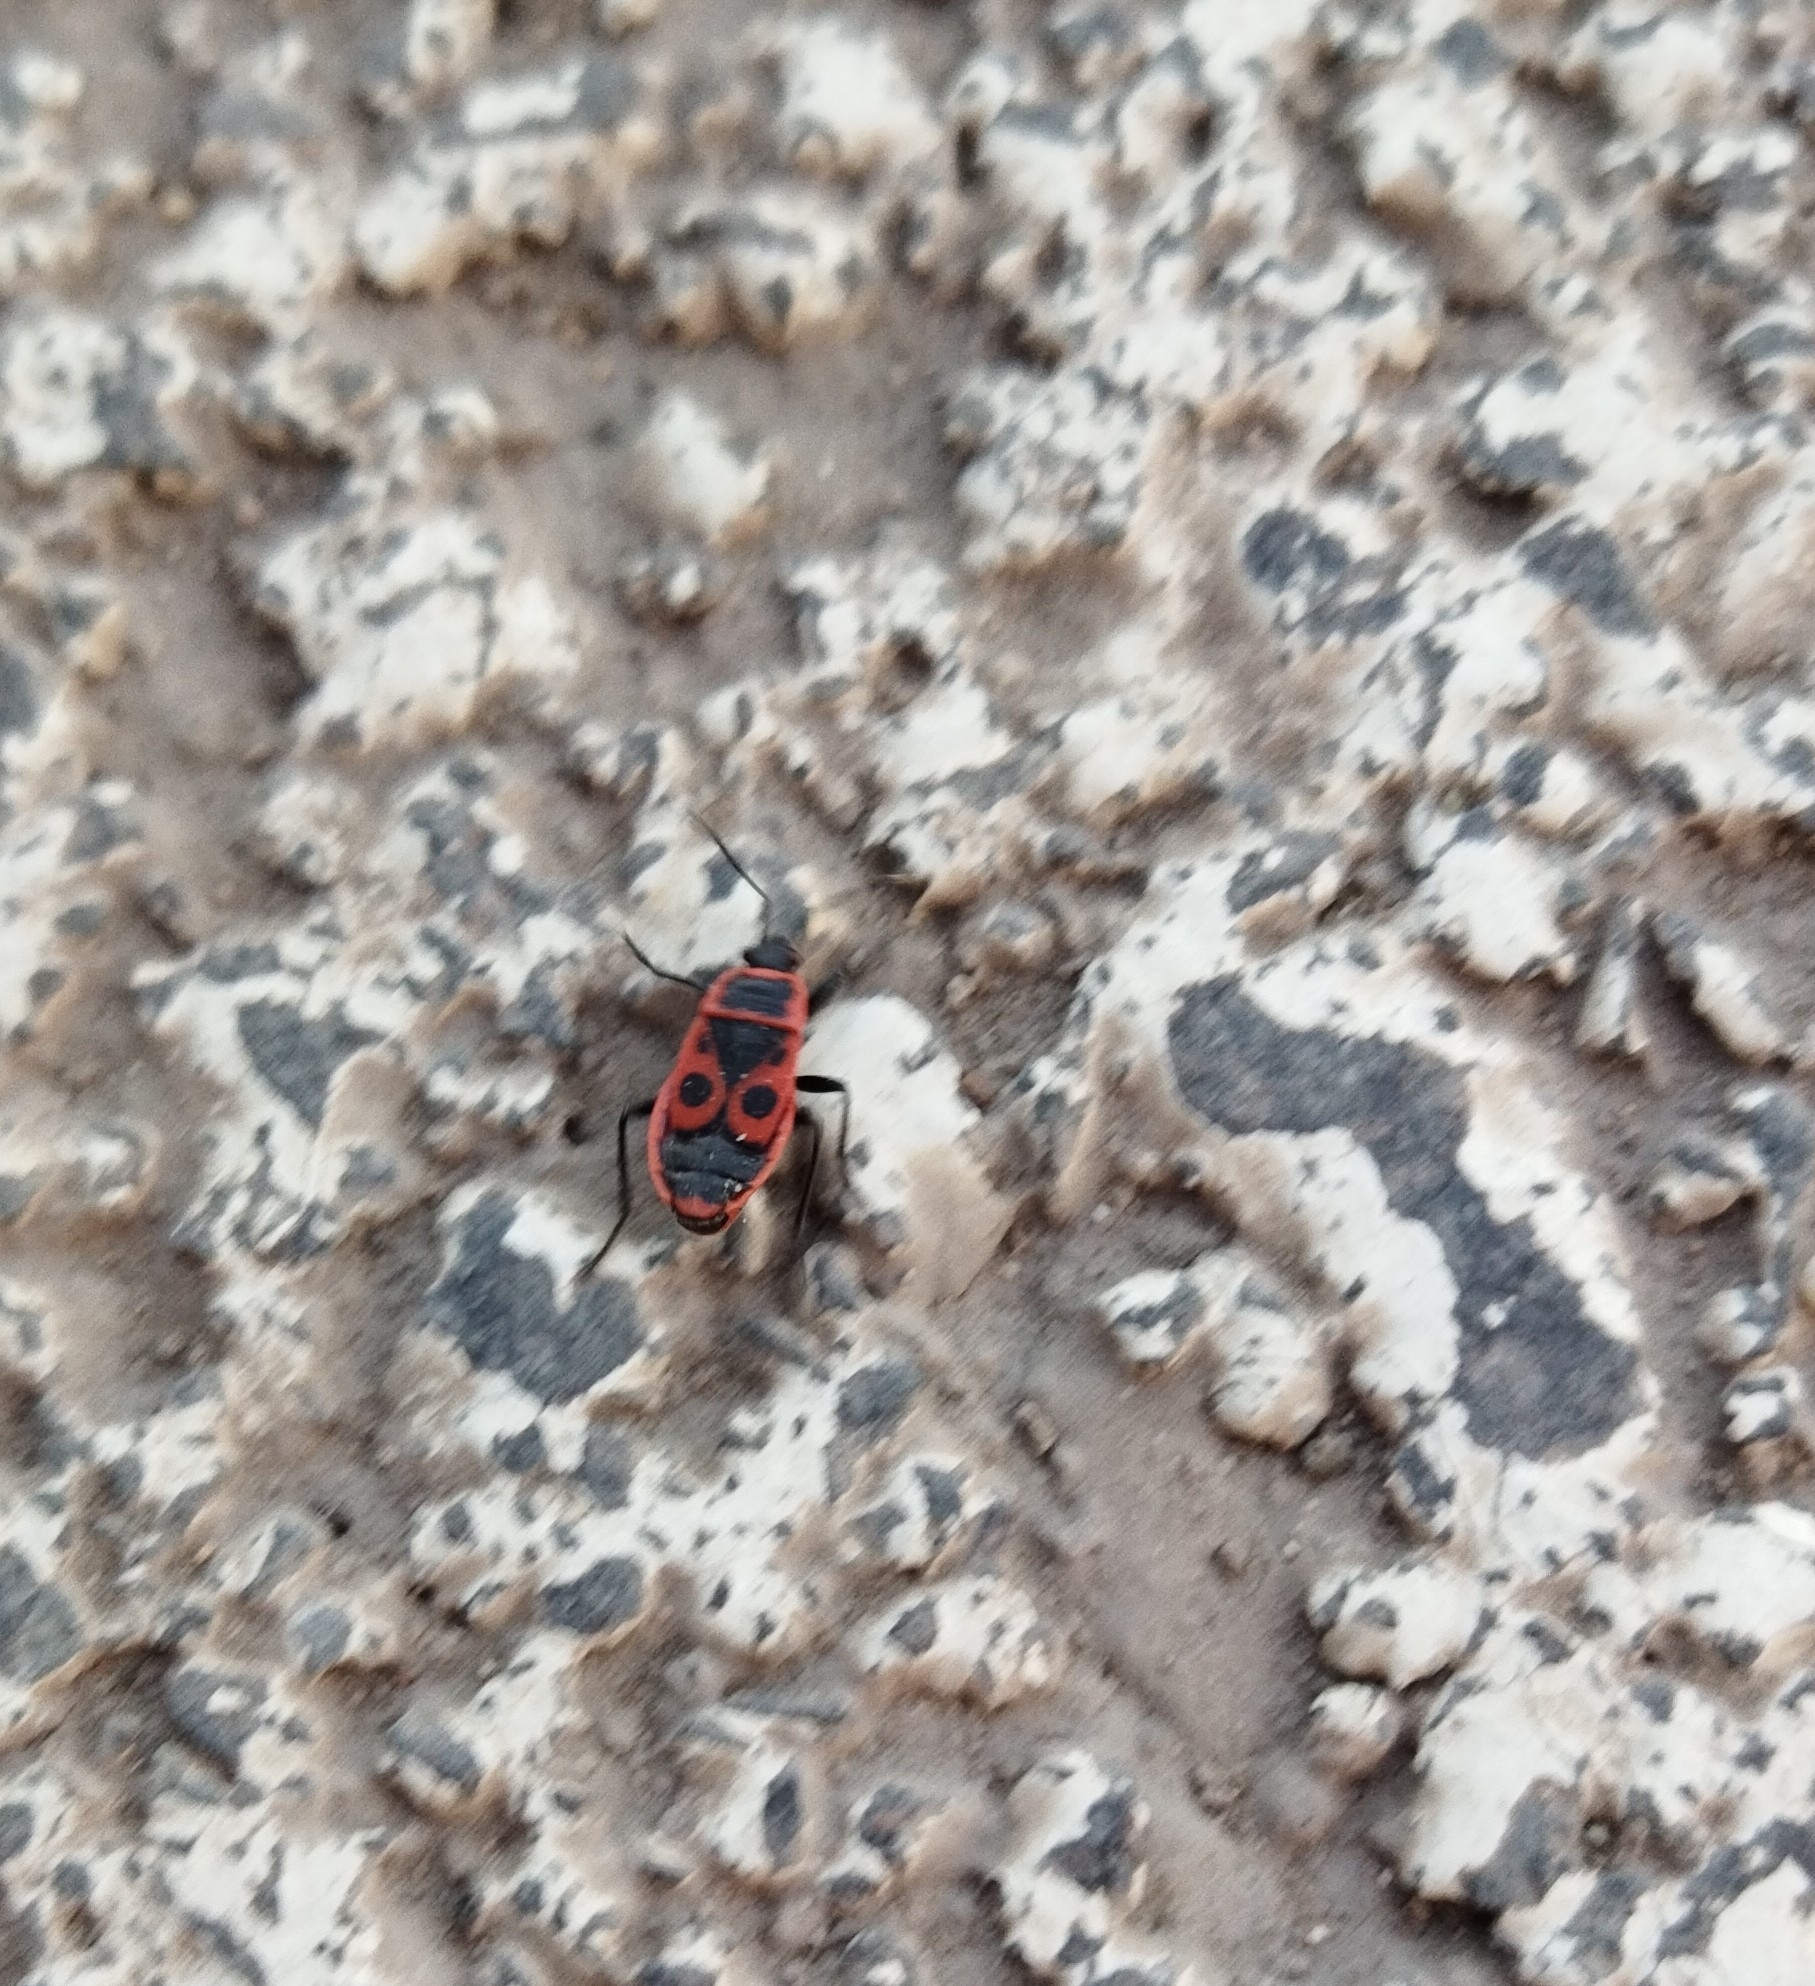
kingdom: Animalia
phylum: Arthropoda
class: Insecta
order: Hemiptera
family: Pyrrhocoridae
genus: Pyrrhocoris
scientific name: Pyrrhocoris apterus
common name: Firebug
